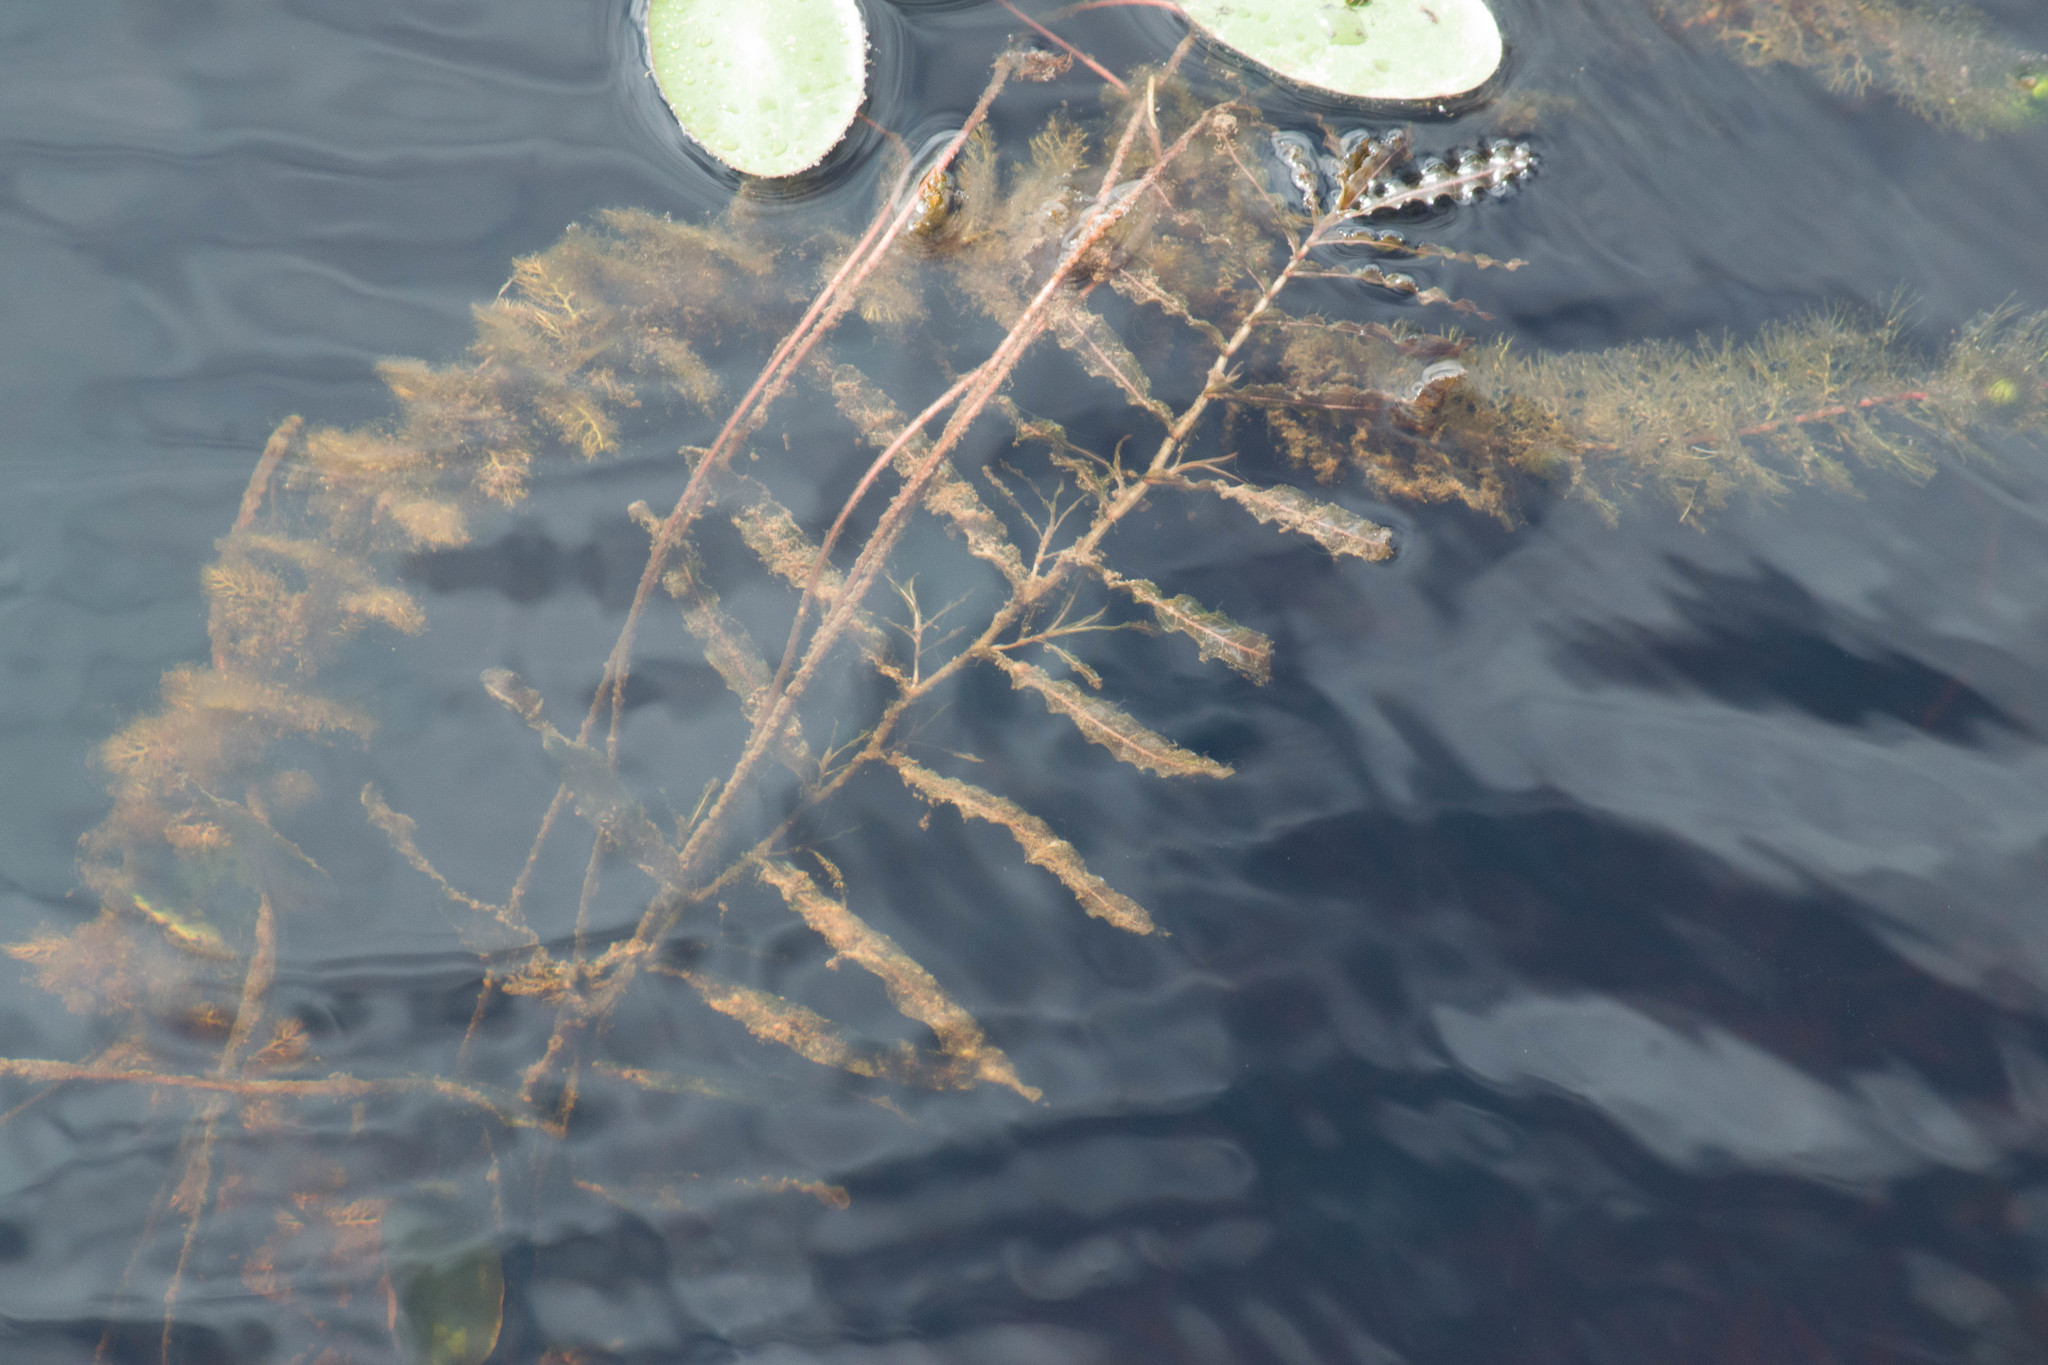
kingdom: Plantae
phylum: Tracheophyta
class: Liliopsida
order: Alismatales
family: Potamogetonaceae
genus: Potamogeton
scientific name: Potamogeton crispus
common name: Curled pondweed
